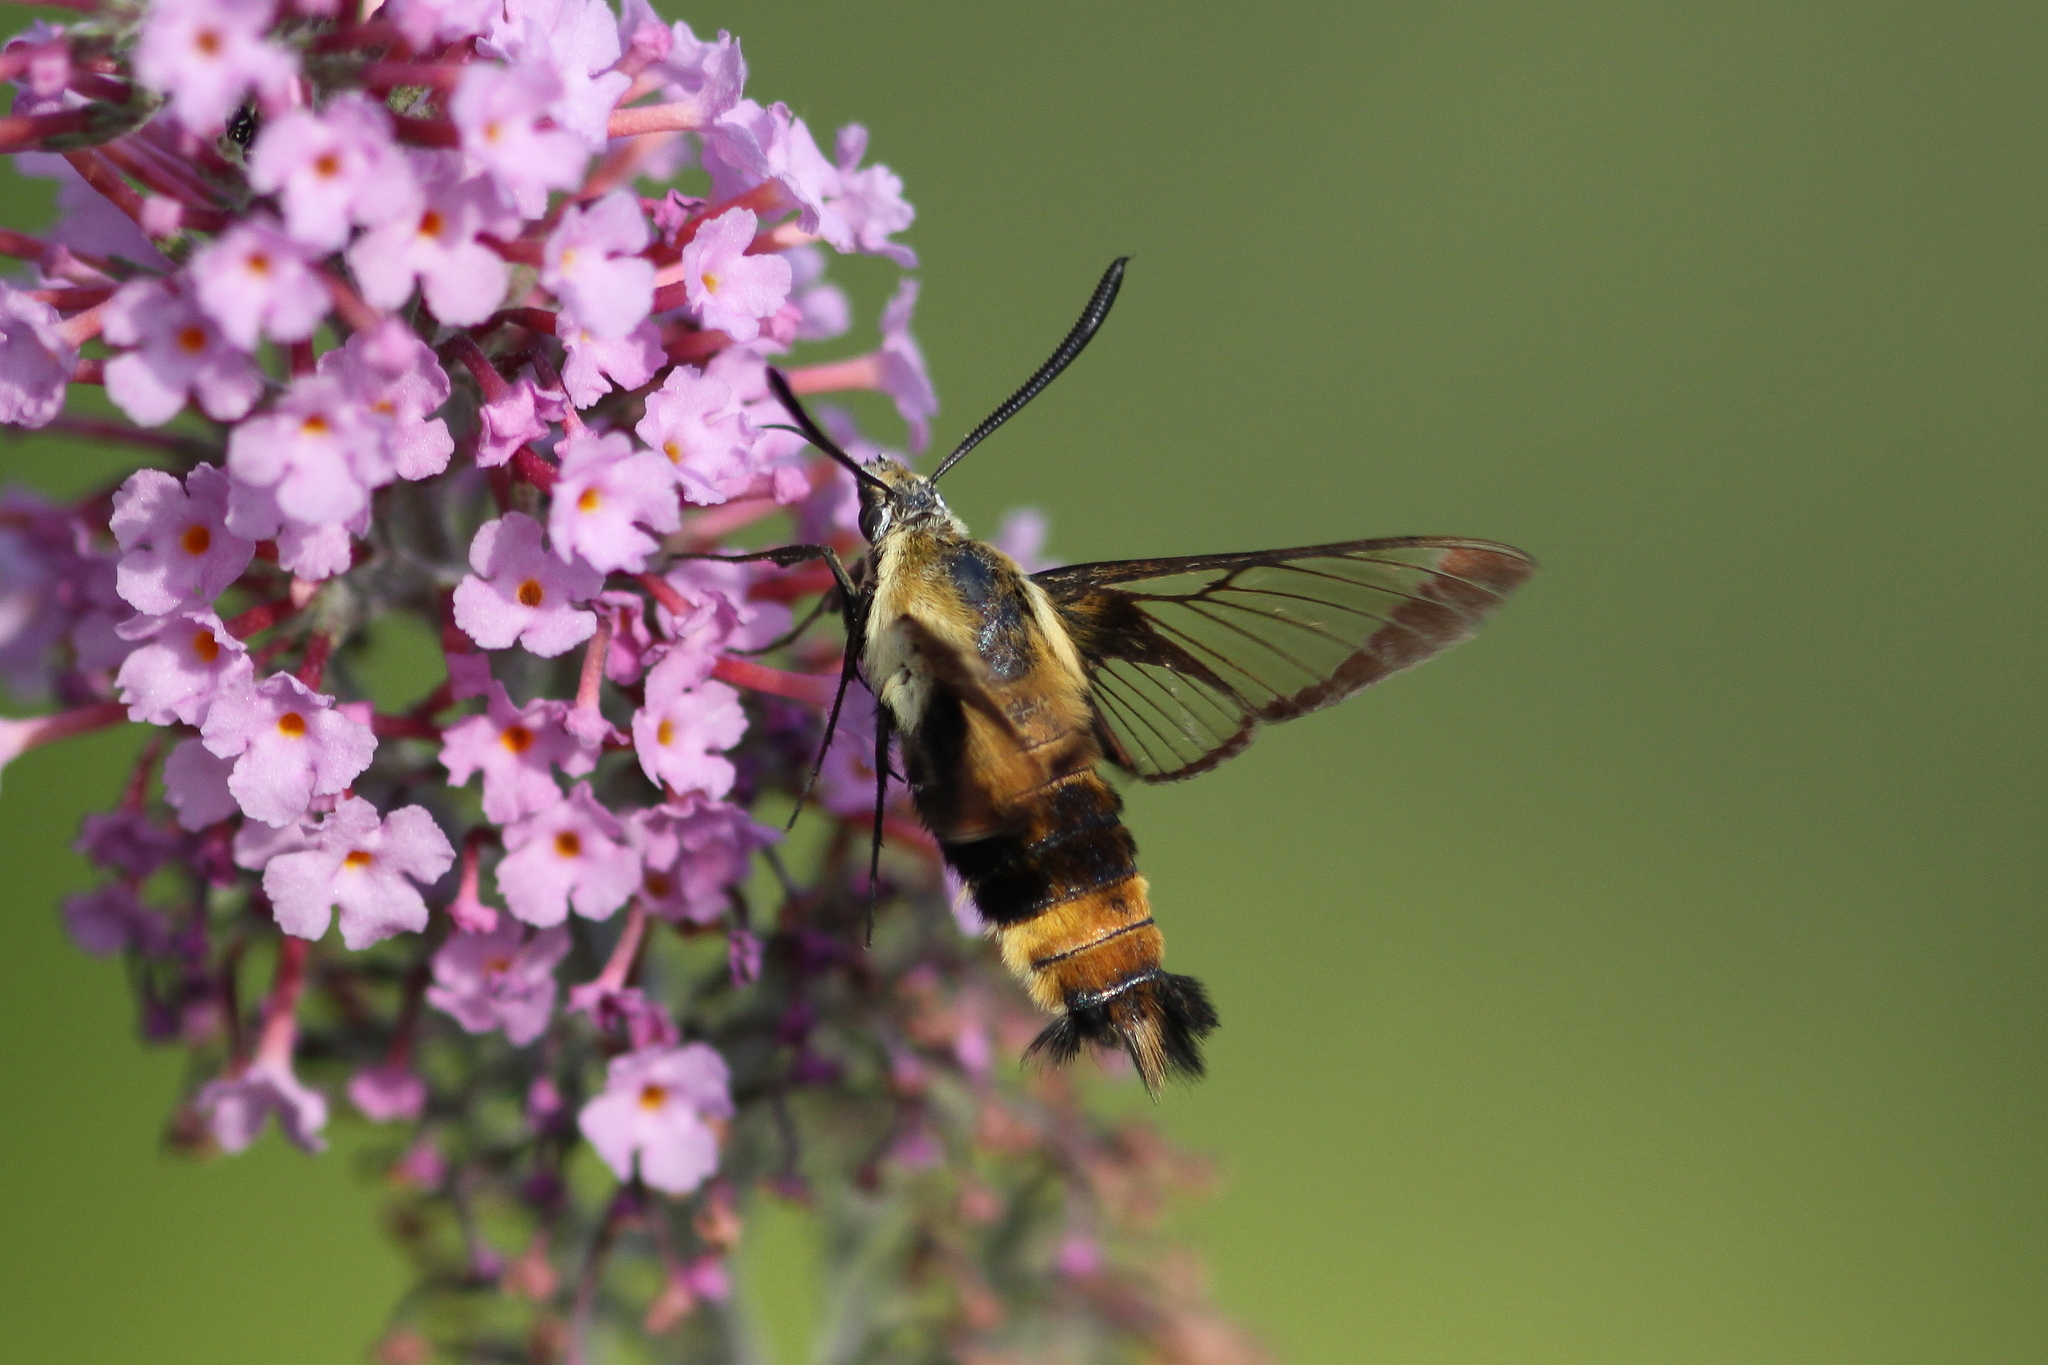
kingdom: Animalia
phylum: Arthropoda
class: Insecta
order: Lepidoptera
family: Sphingidae
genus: Hemaris
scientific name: Hemaris diffinis
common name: Bumblebee moth
